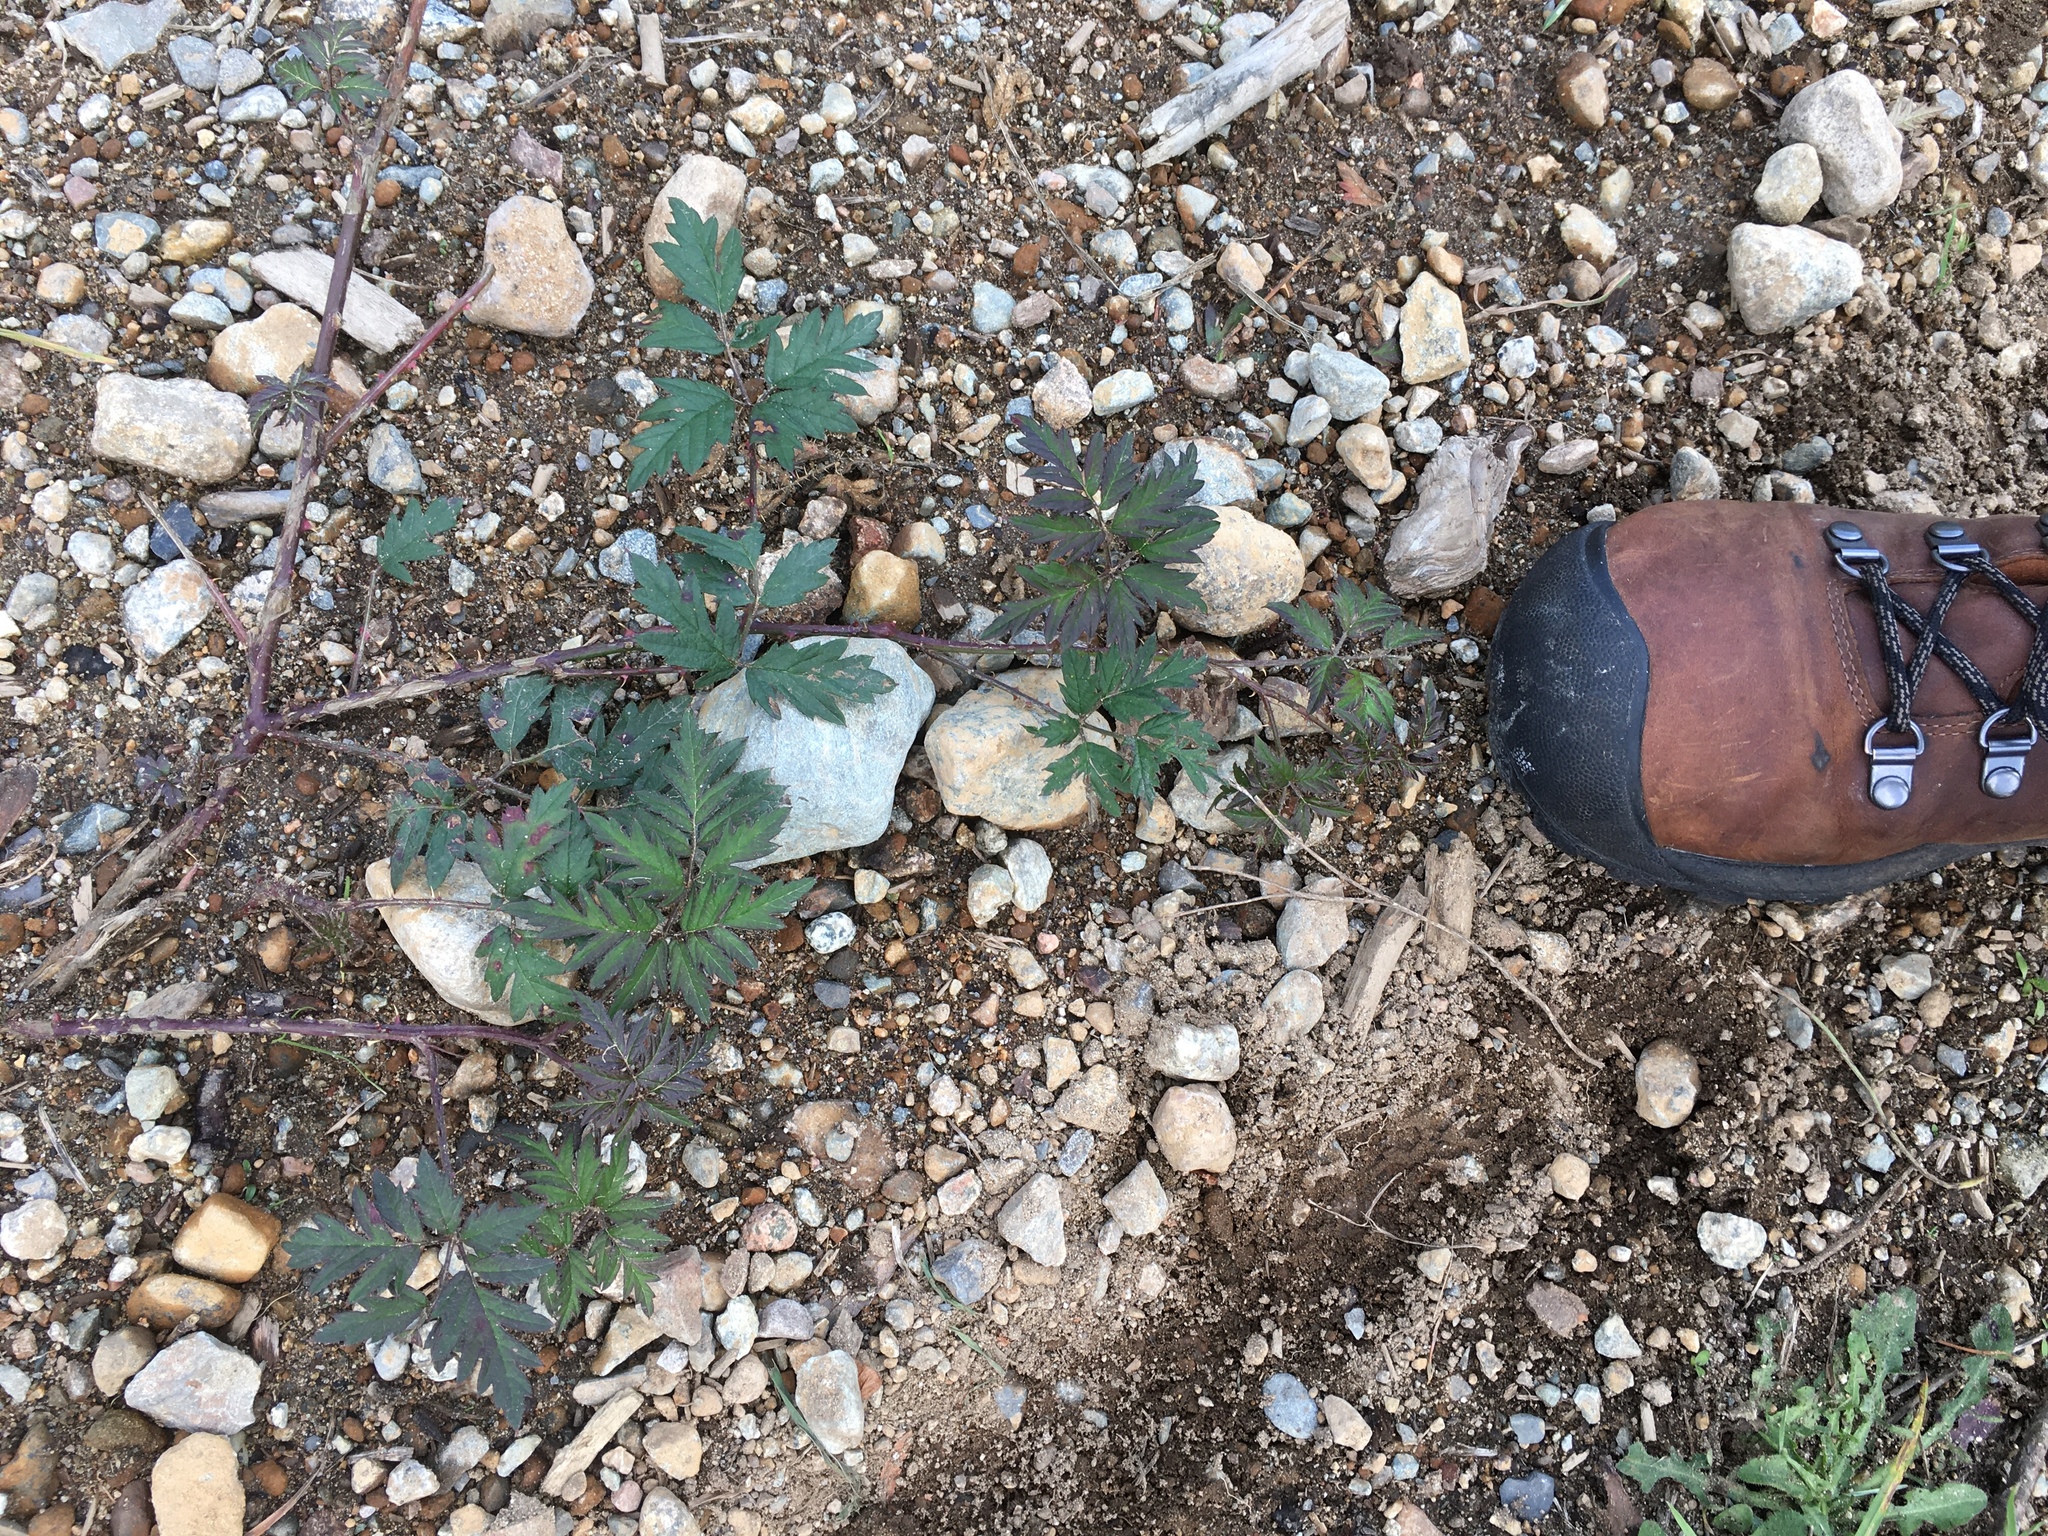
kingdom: Plantae
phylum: Tracheophyta
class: Magnoliopsida
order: Rosales
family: Rosaceae
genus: Rubus
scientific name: Rubus laciniatus
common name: Evergreen blackberry
